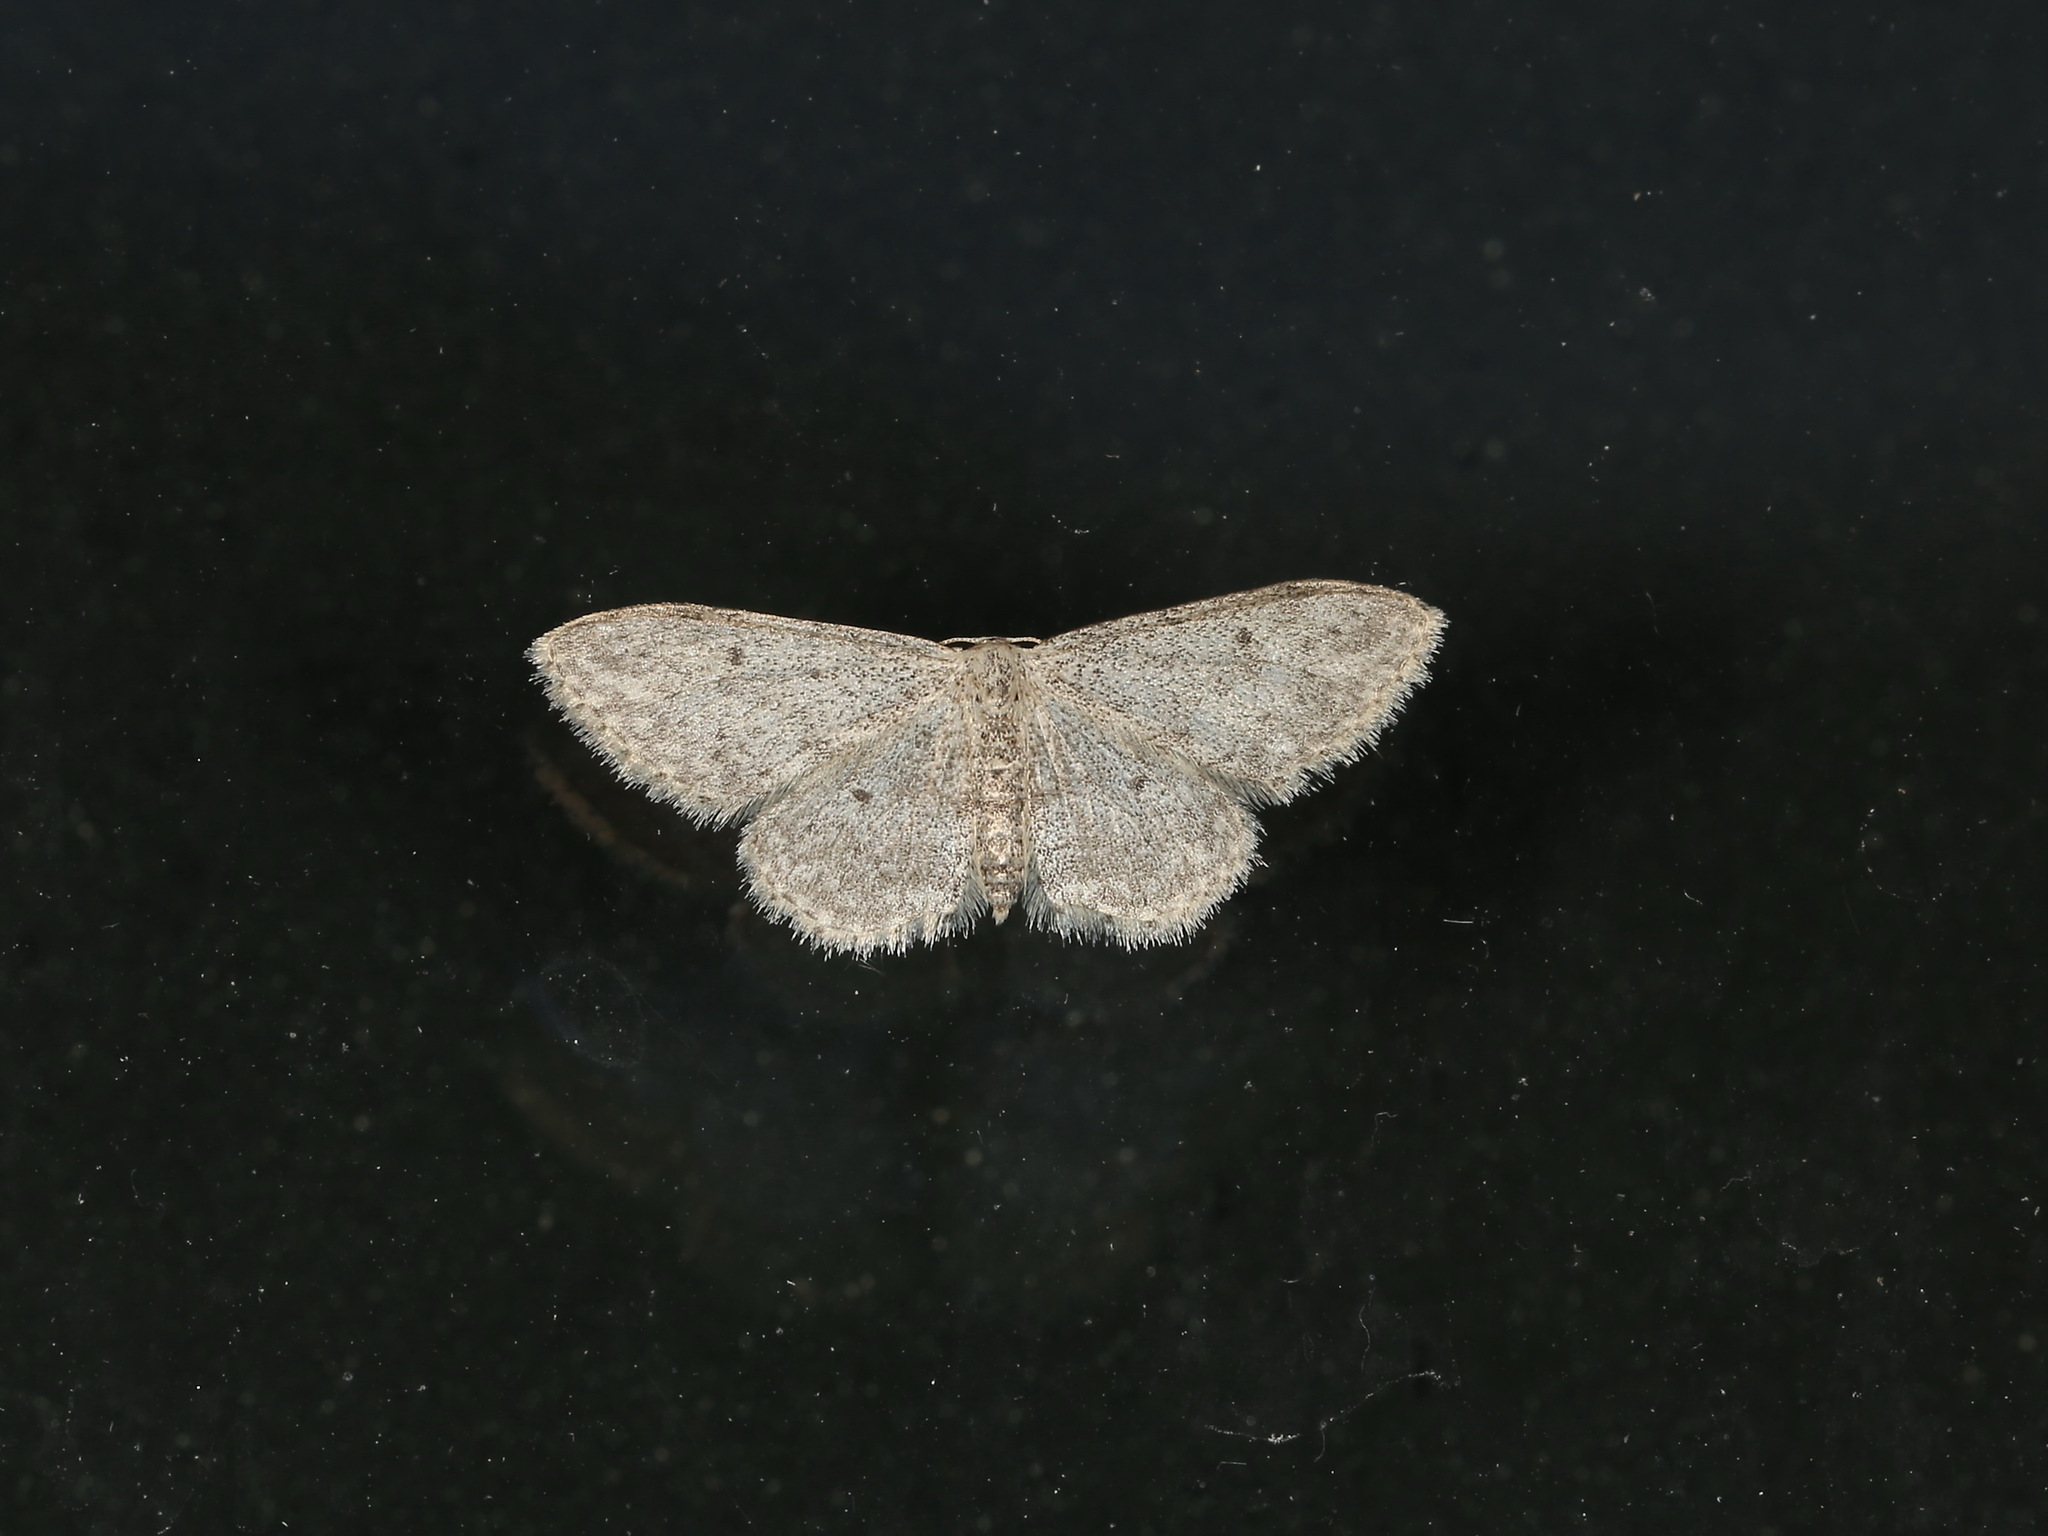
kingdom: Animalia
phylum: Arthropoda
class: Insecta
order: Lepidoptera
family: Geometridae
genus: Idaea
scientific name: Idaea seriata
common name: Small dusty wave
